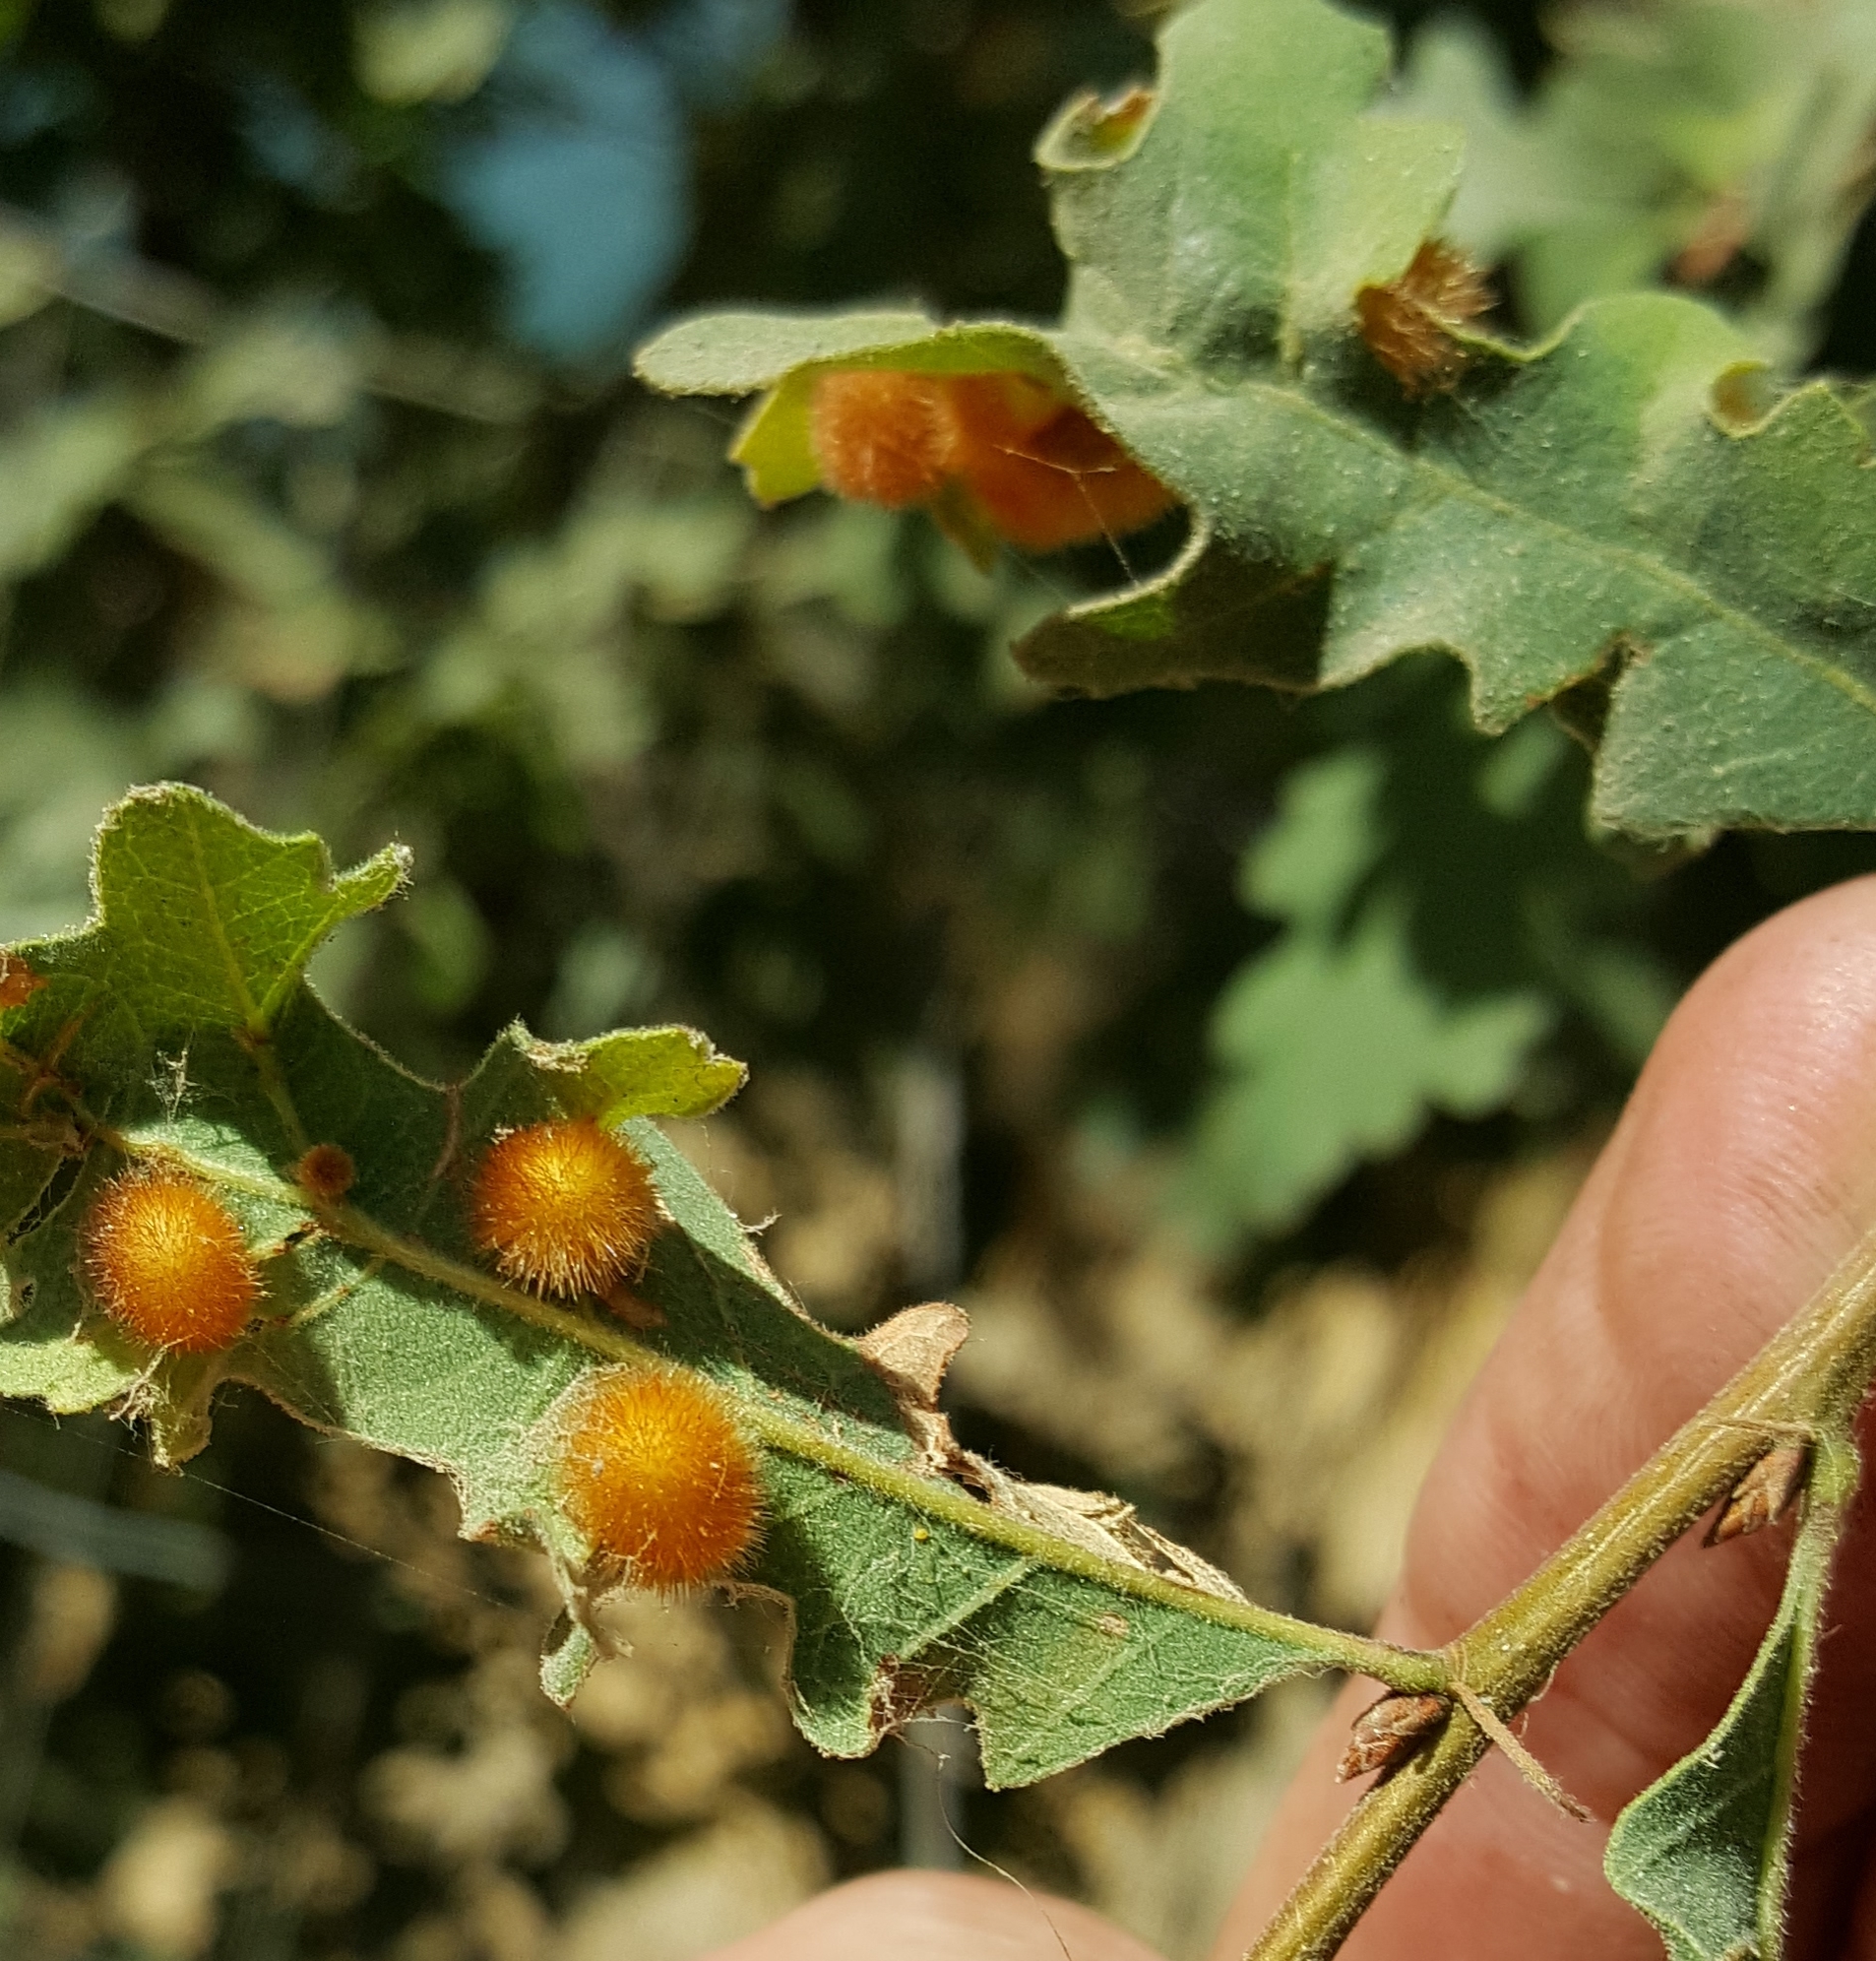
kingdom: Animalia
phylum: Arthropoda
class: Insecta
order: Hymenoptera
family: Cynipidae
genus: Atrusca
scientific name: Atrusca
